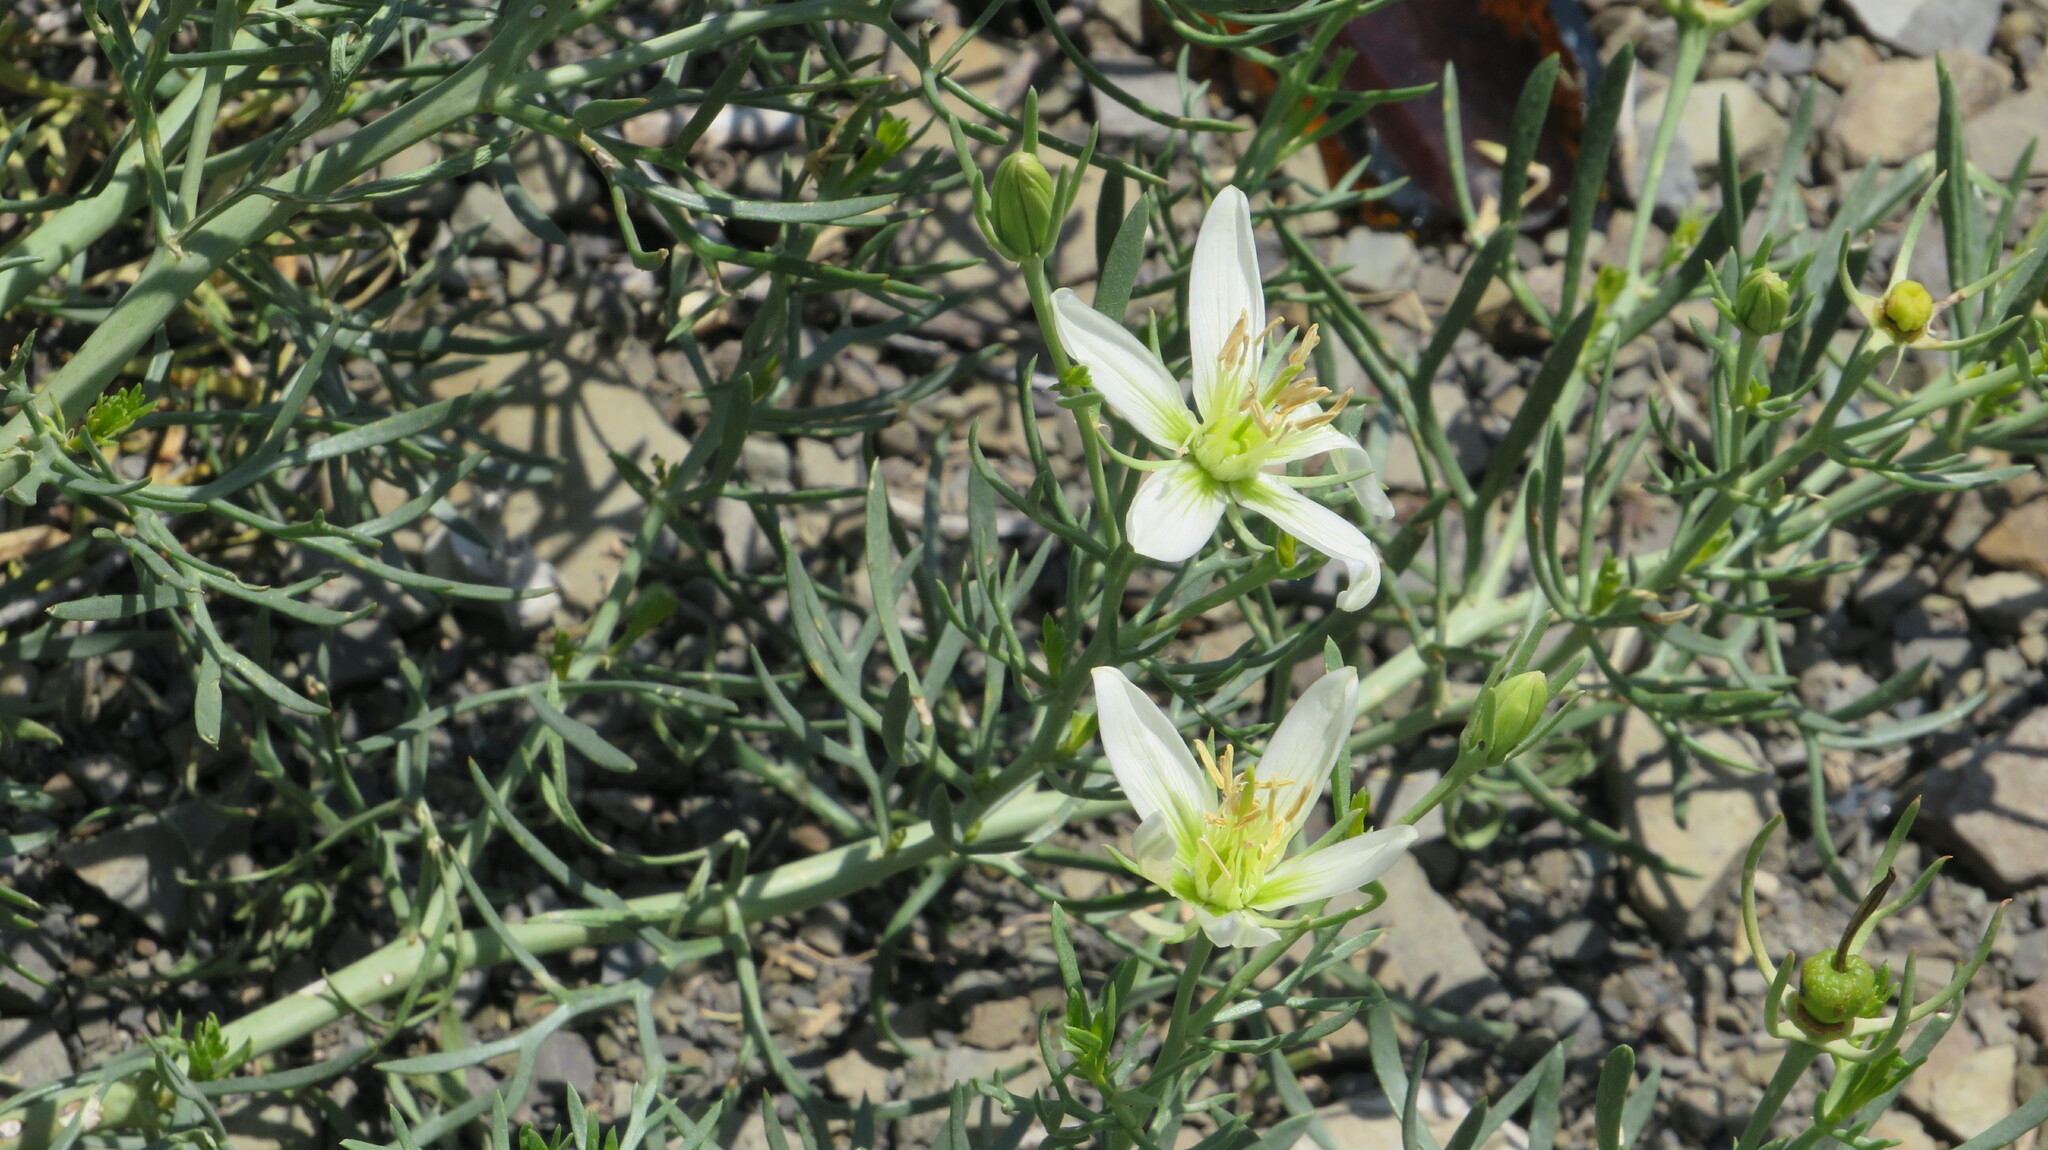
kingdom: Plantae
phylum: Tracheophyta
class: Magnoliopsida
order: Sapindales
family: Tetradiclidaceae
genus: Peganum
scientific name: Peganum harmala
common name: Harmal peganum
